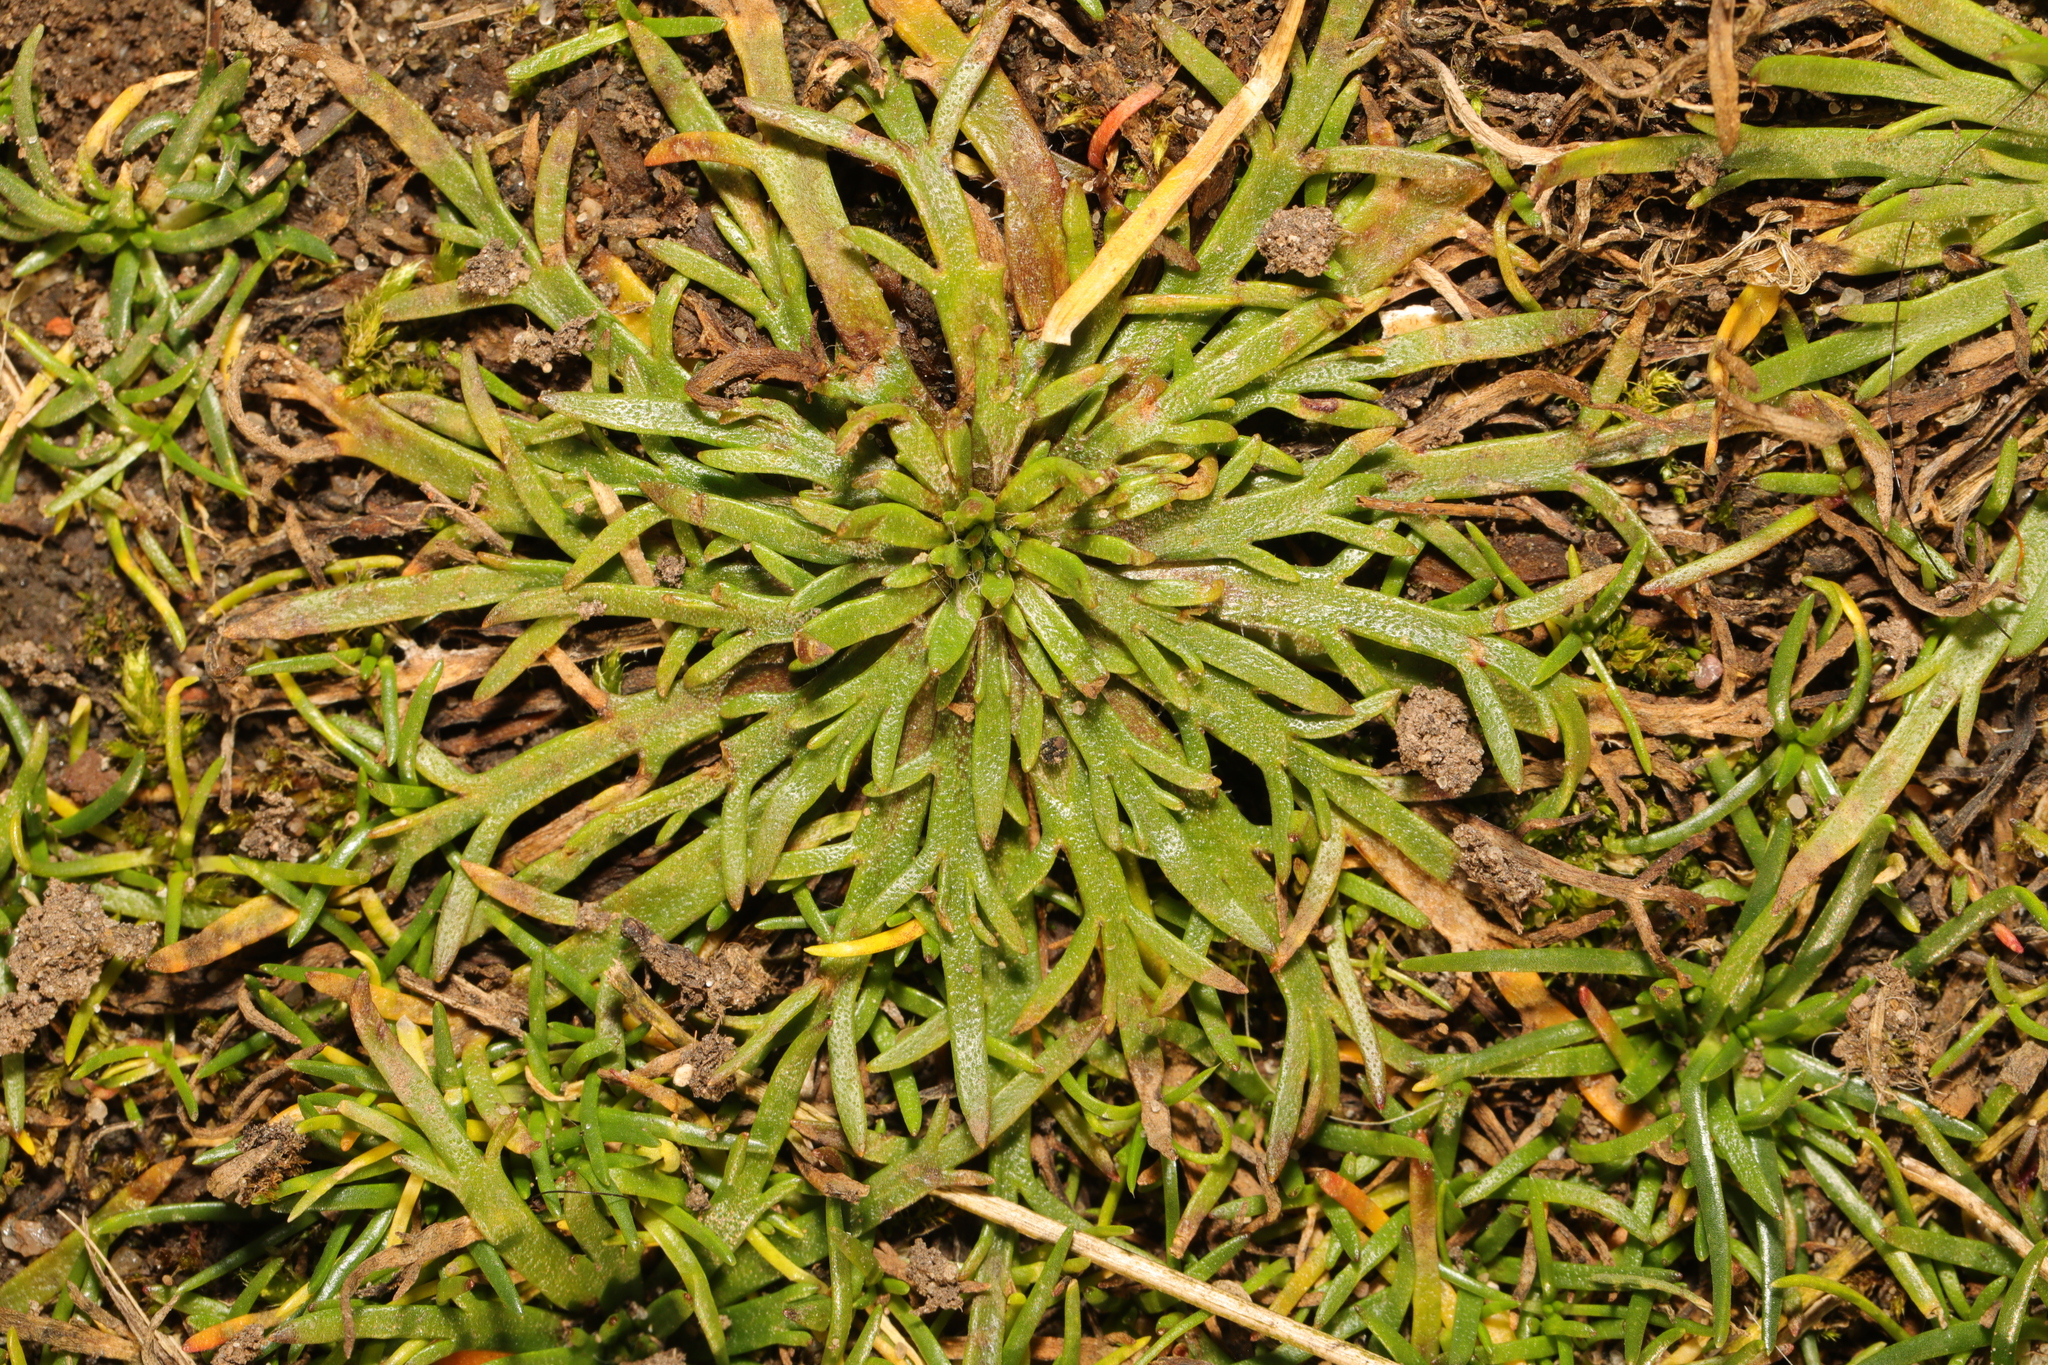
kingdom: Plantae
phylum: Tracheophyta
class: Magnoliopsida
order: Lamiales
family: Plantaginaceae
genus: Plantago
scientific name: Plantago coronopus
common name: Buck's-horn plantain
